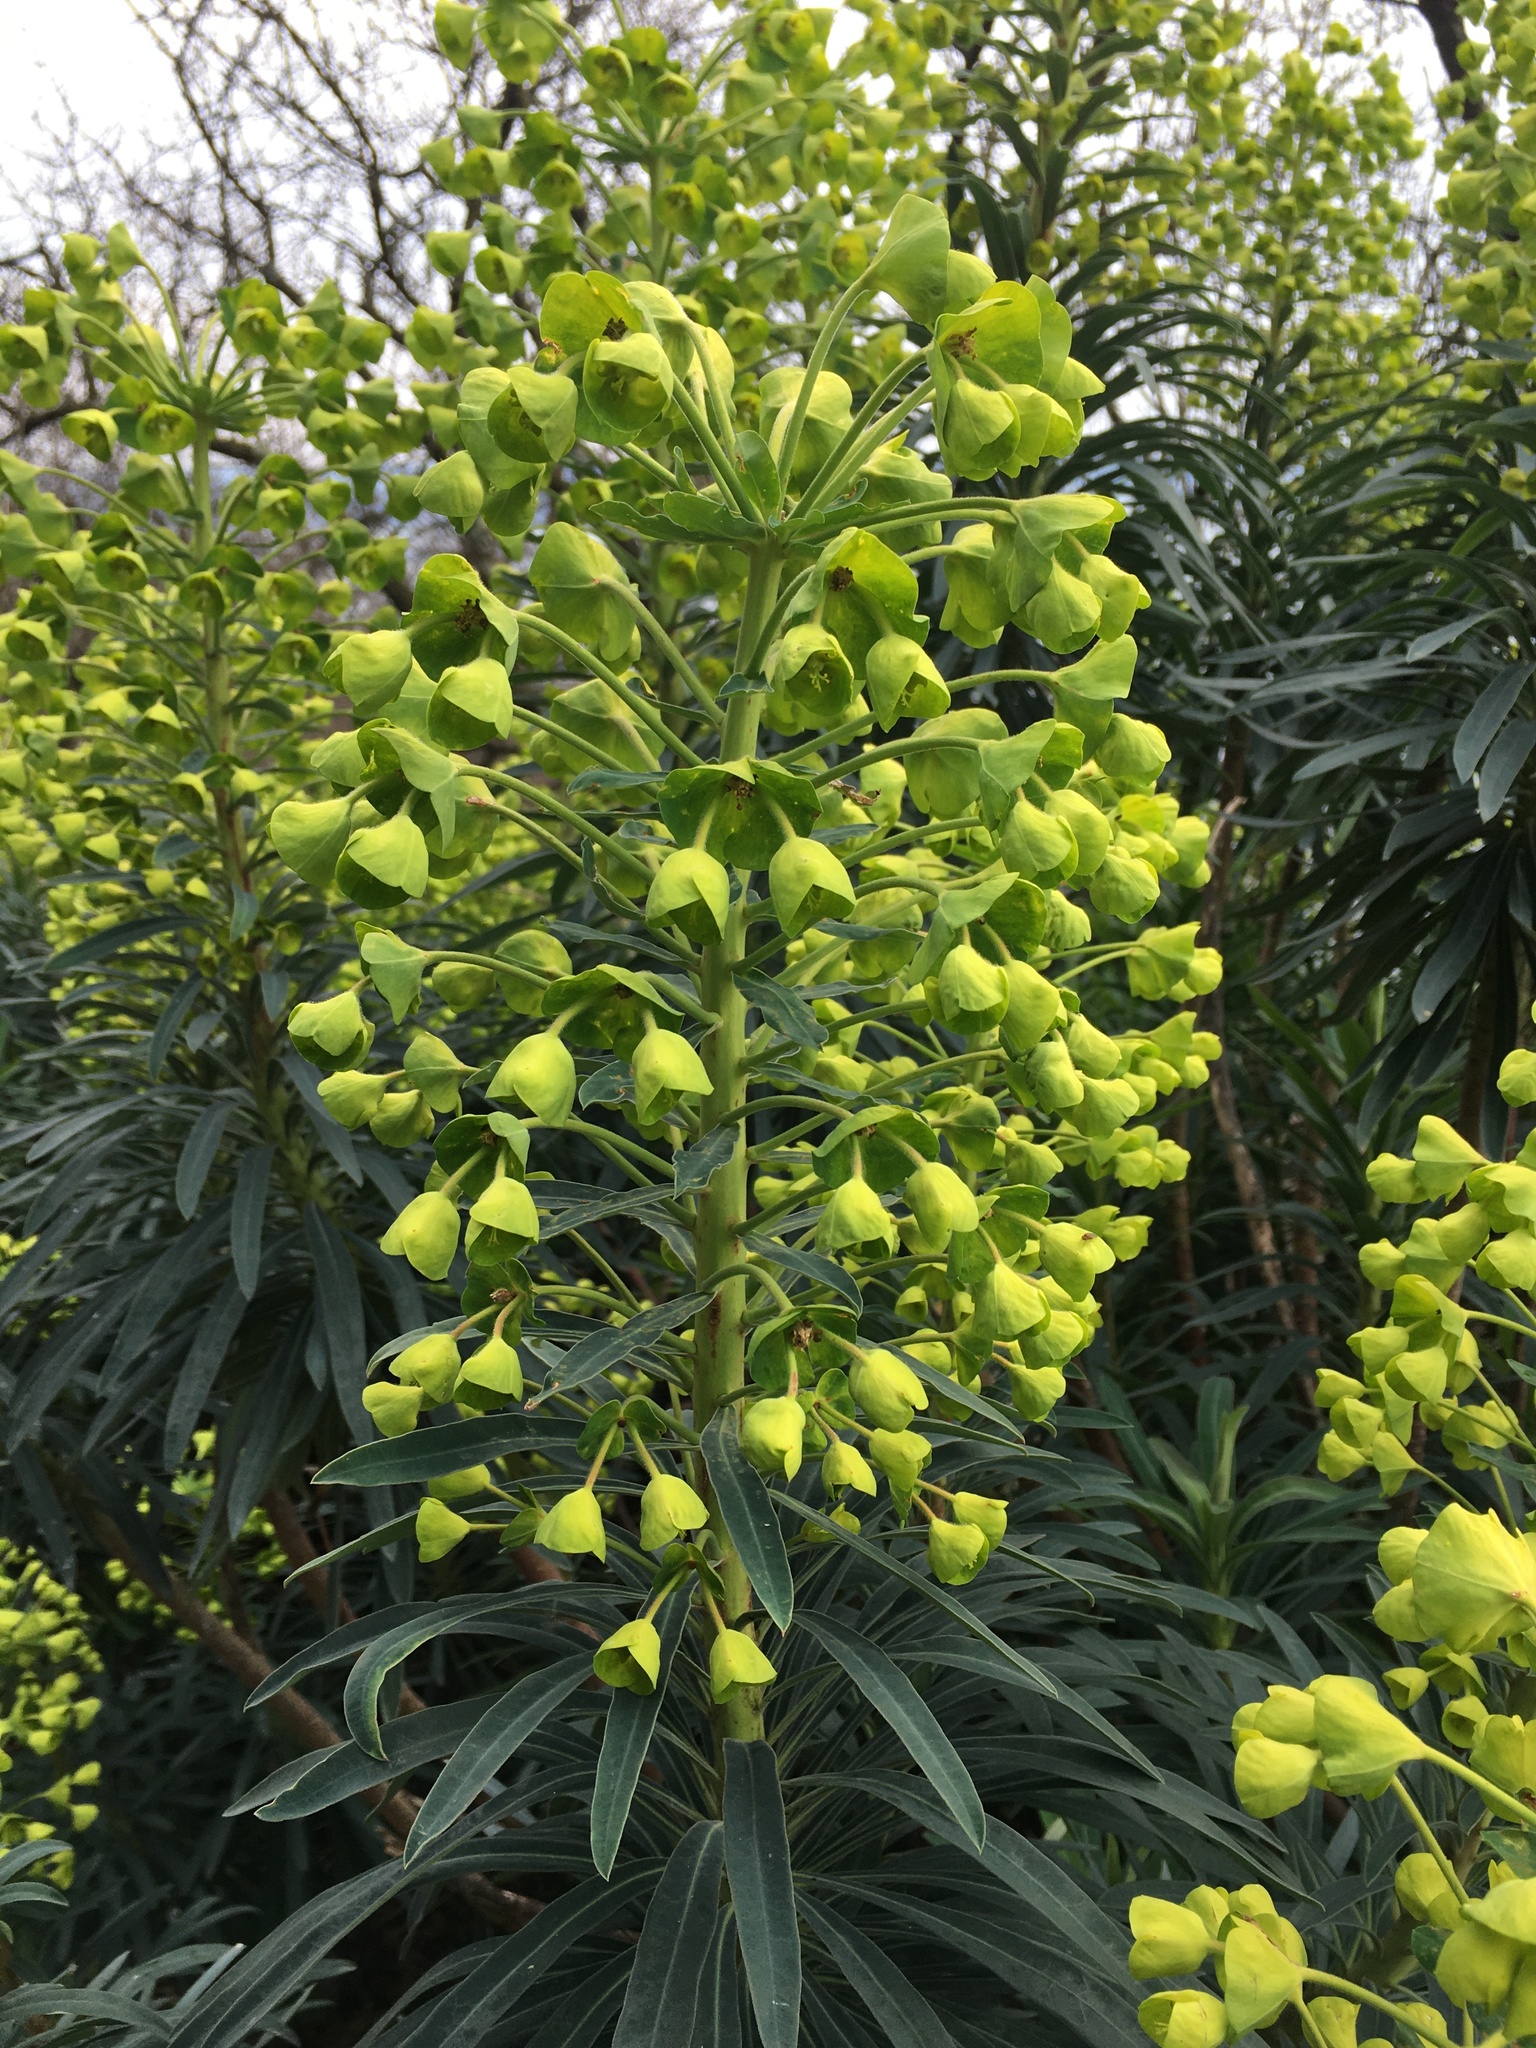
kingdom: Plantae
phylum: Tracheophyta
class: Magnoliopsida
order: Malpighiales
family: Euphorbiaceae
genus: Euphorbia
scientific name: Euphorbia characias
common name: Mediterranean spurge
